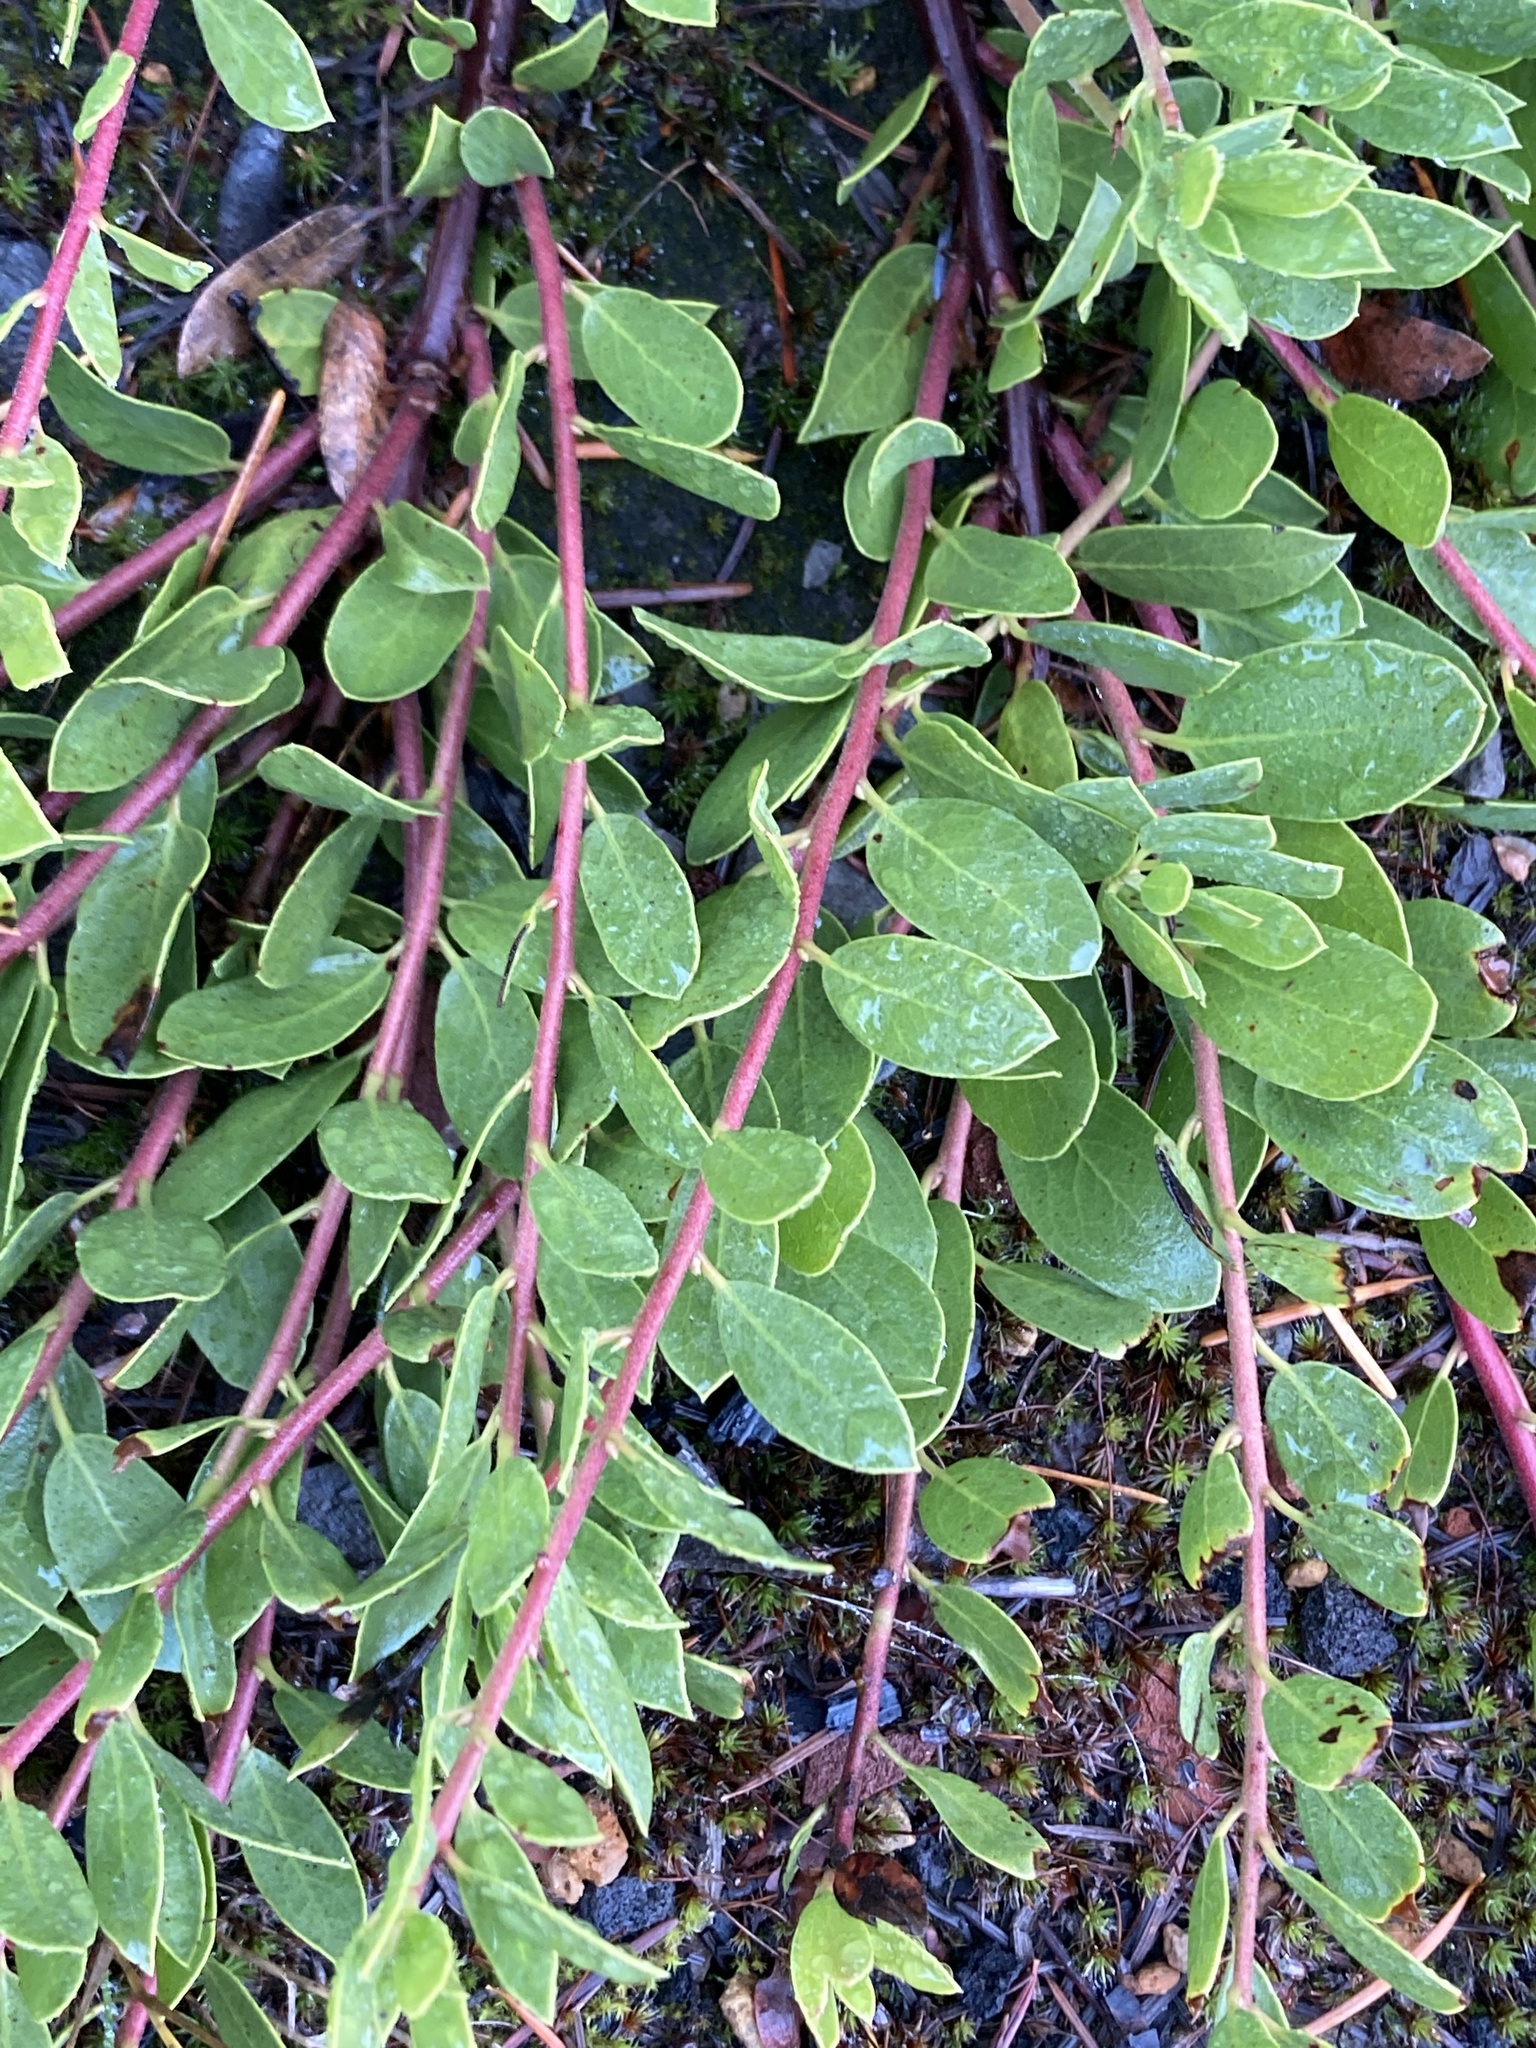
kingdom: Plantae
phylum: Tracheophyta
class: Magnoliopsida
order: Ericales
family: Ericaceae
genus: Arctostaphylos
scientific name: Arctostaphylos nevadensis
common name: Pinemat manzanita
